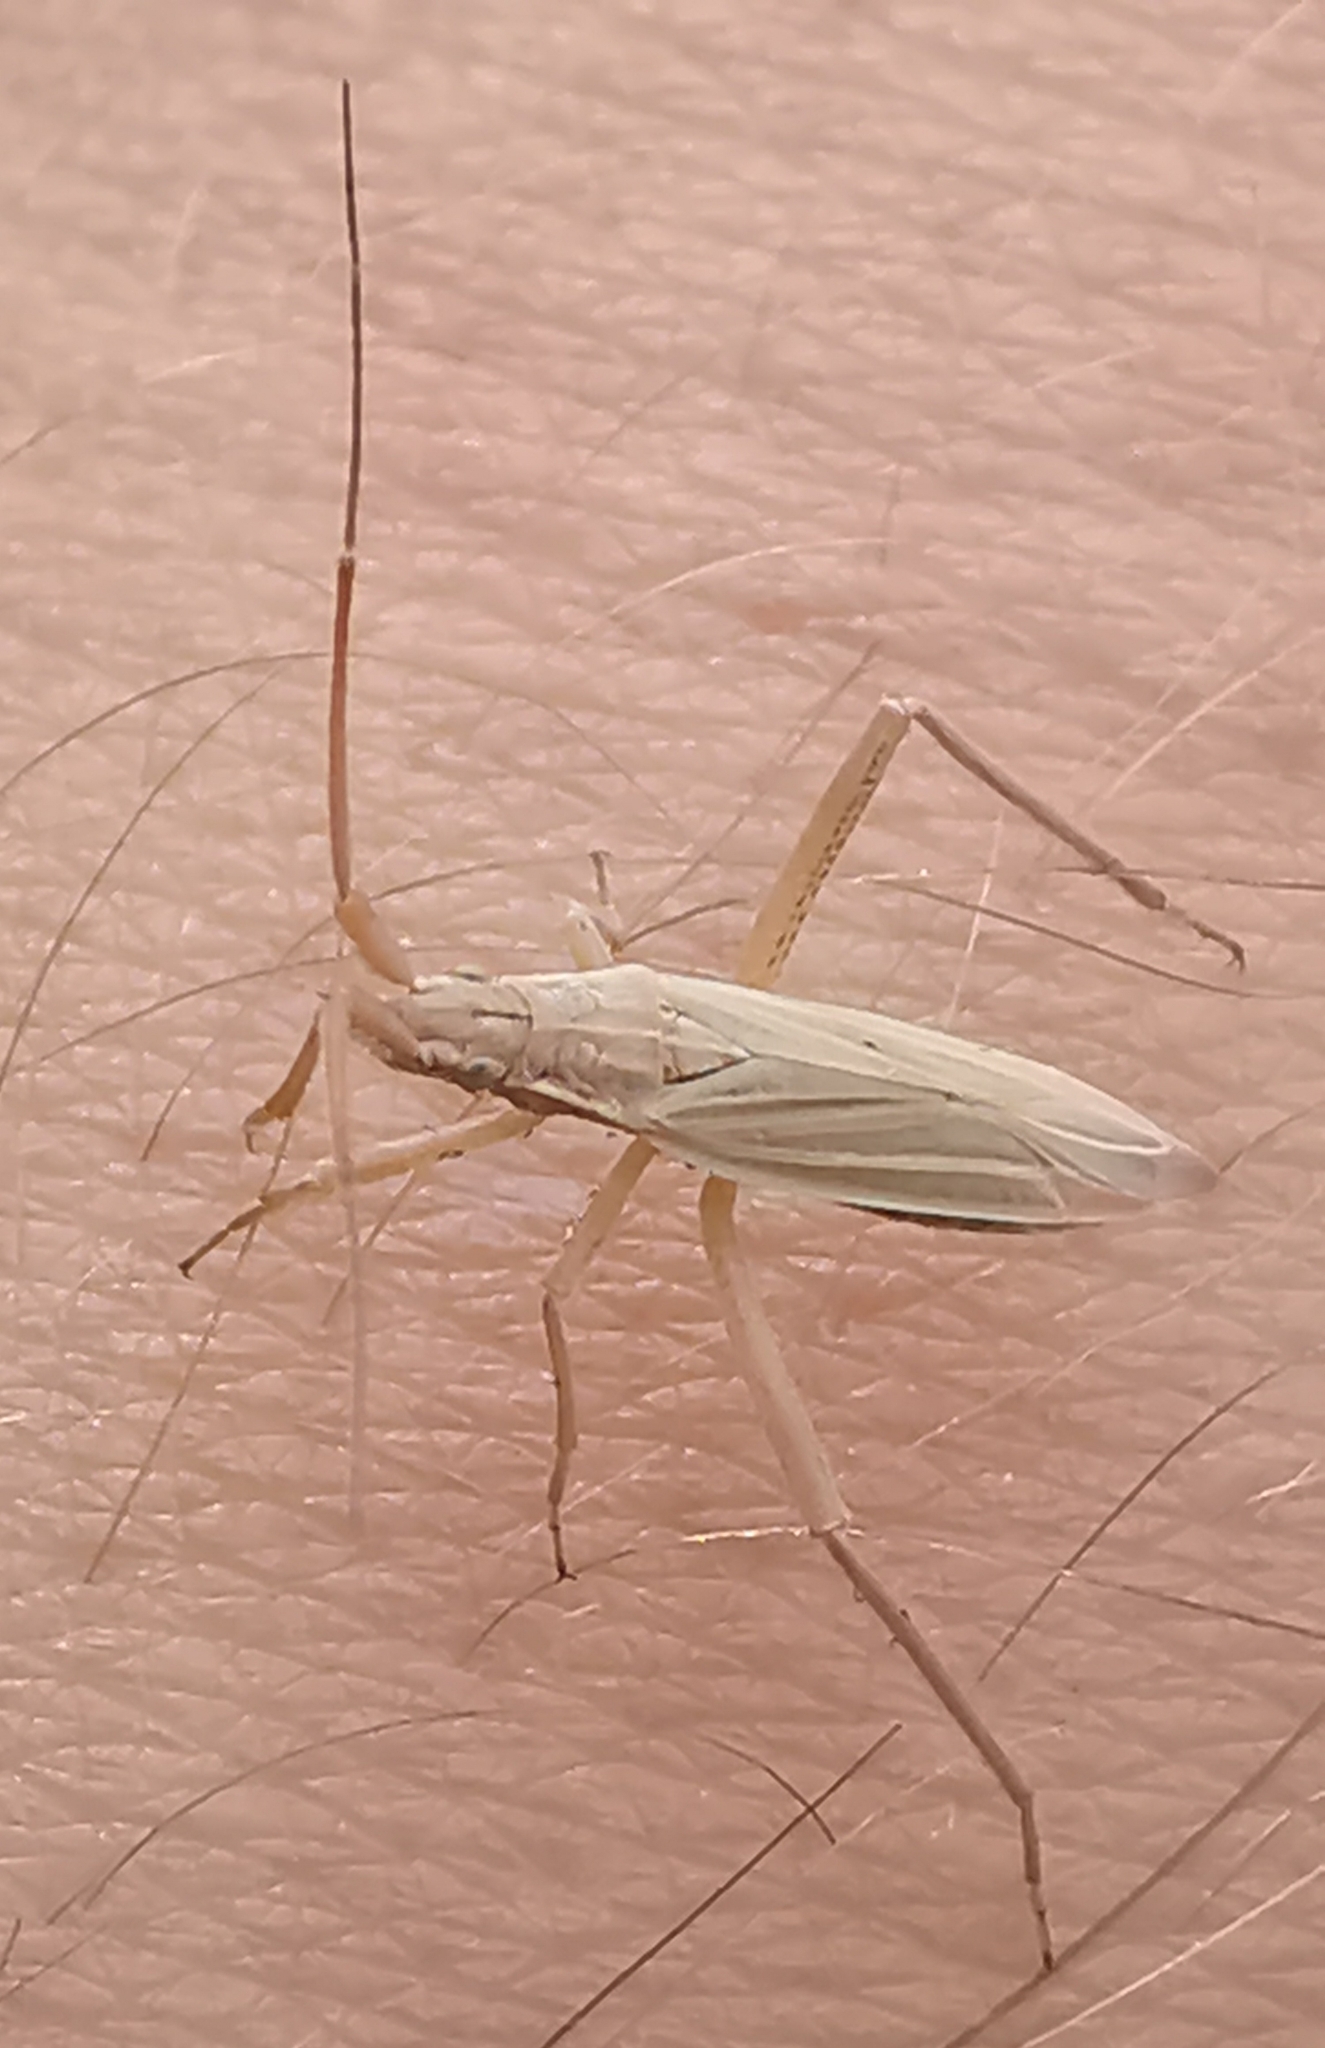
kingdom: Animalia
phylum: Arthropoda
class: Insecta
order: Hemiptera
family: Miridae
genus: Notostira
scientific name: Notostira elongata
